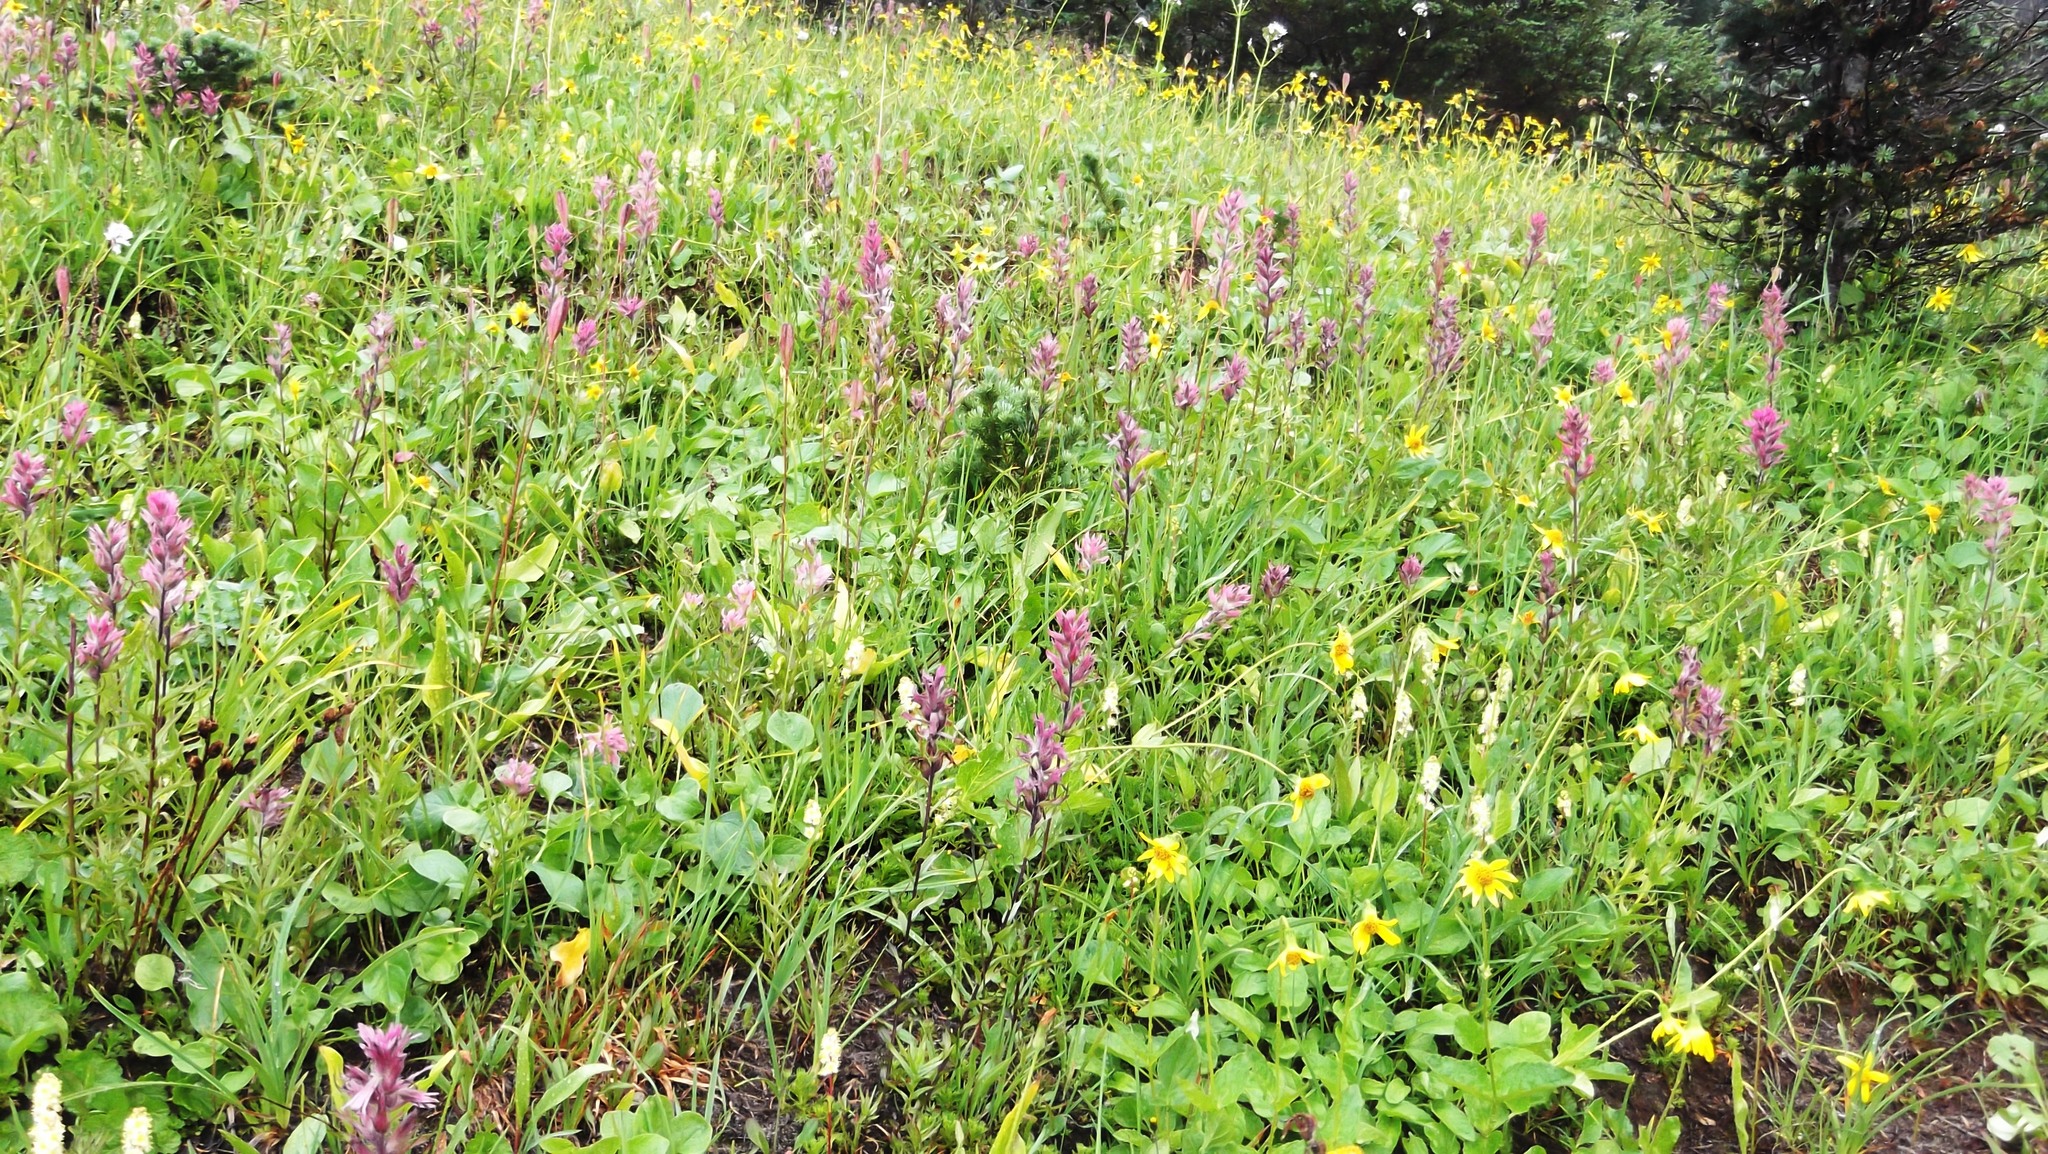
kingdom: Plantae
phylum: Tracheophyta
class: Magnoliopsida
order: Lamiales
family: Orobanchaceae
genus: Castilleja
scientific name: Castilleja parviflora
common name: Mountain paintbrush
